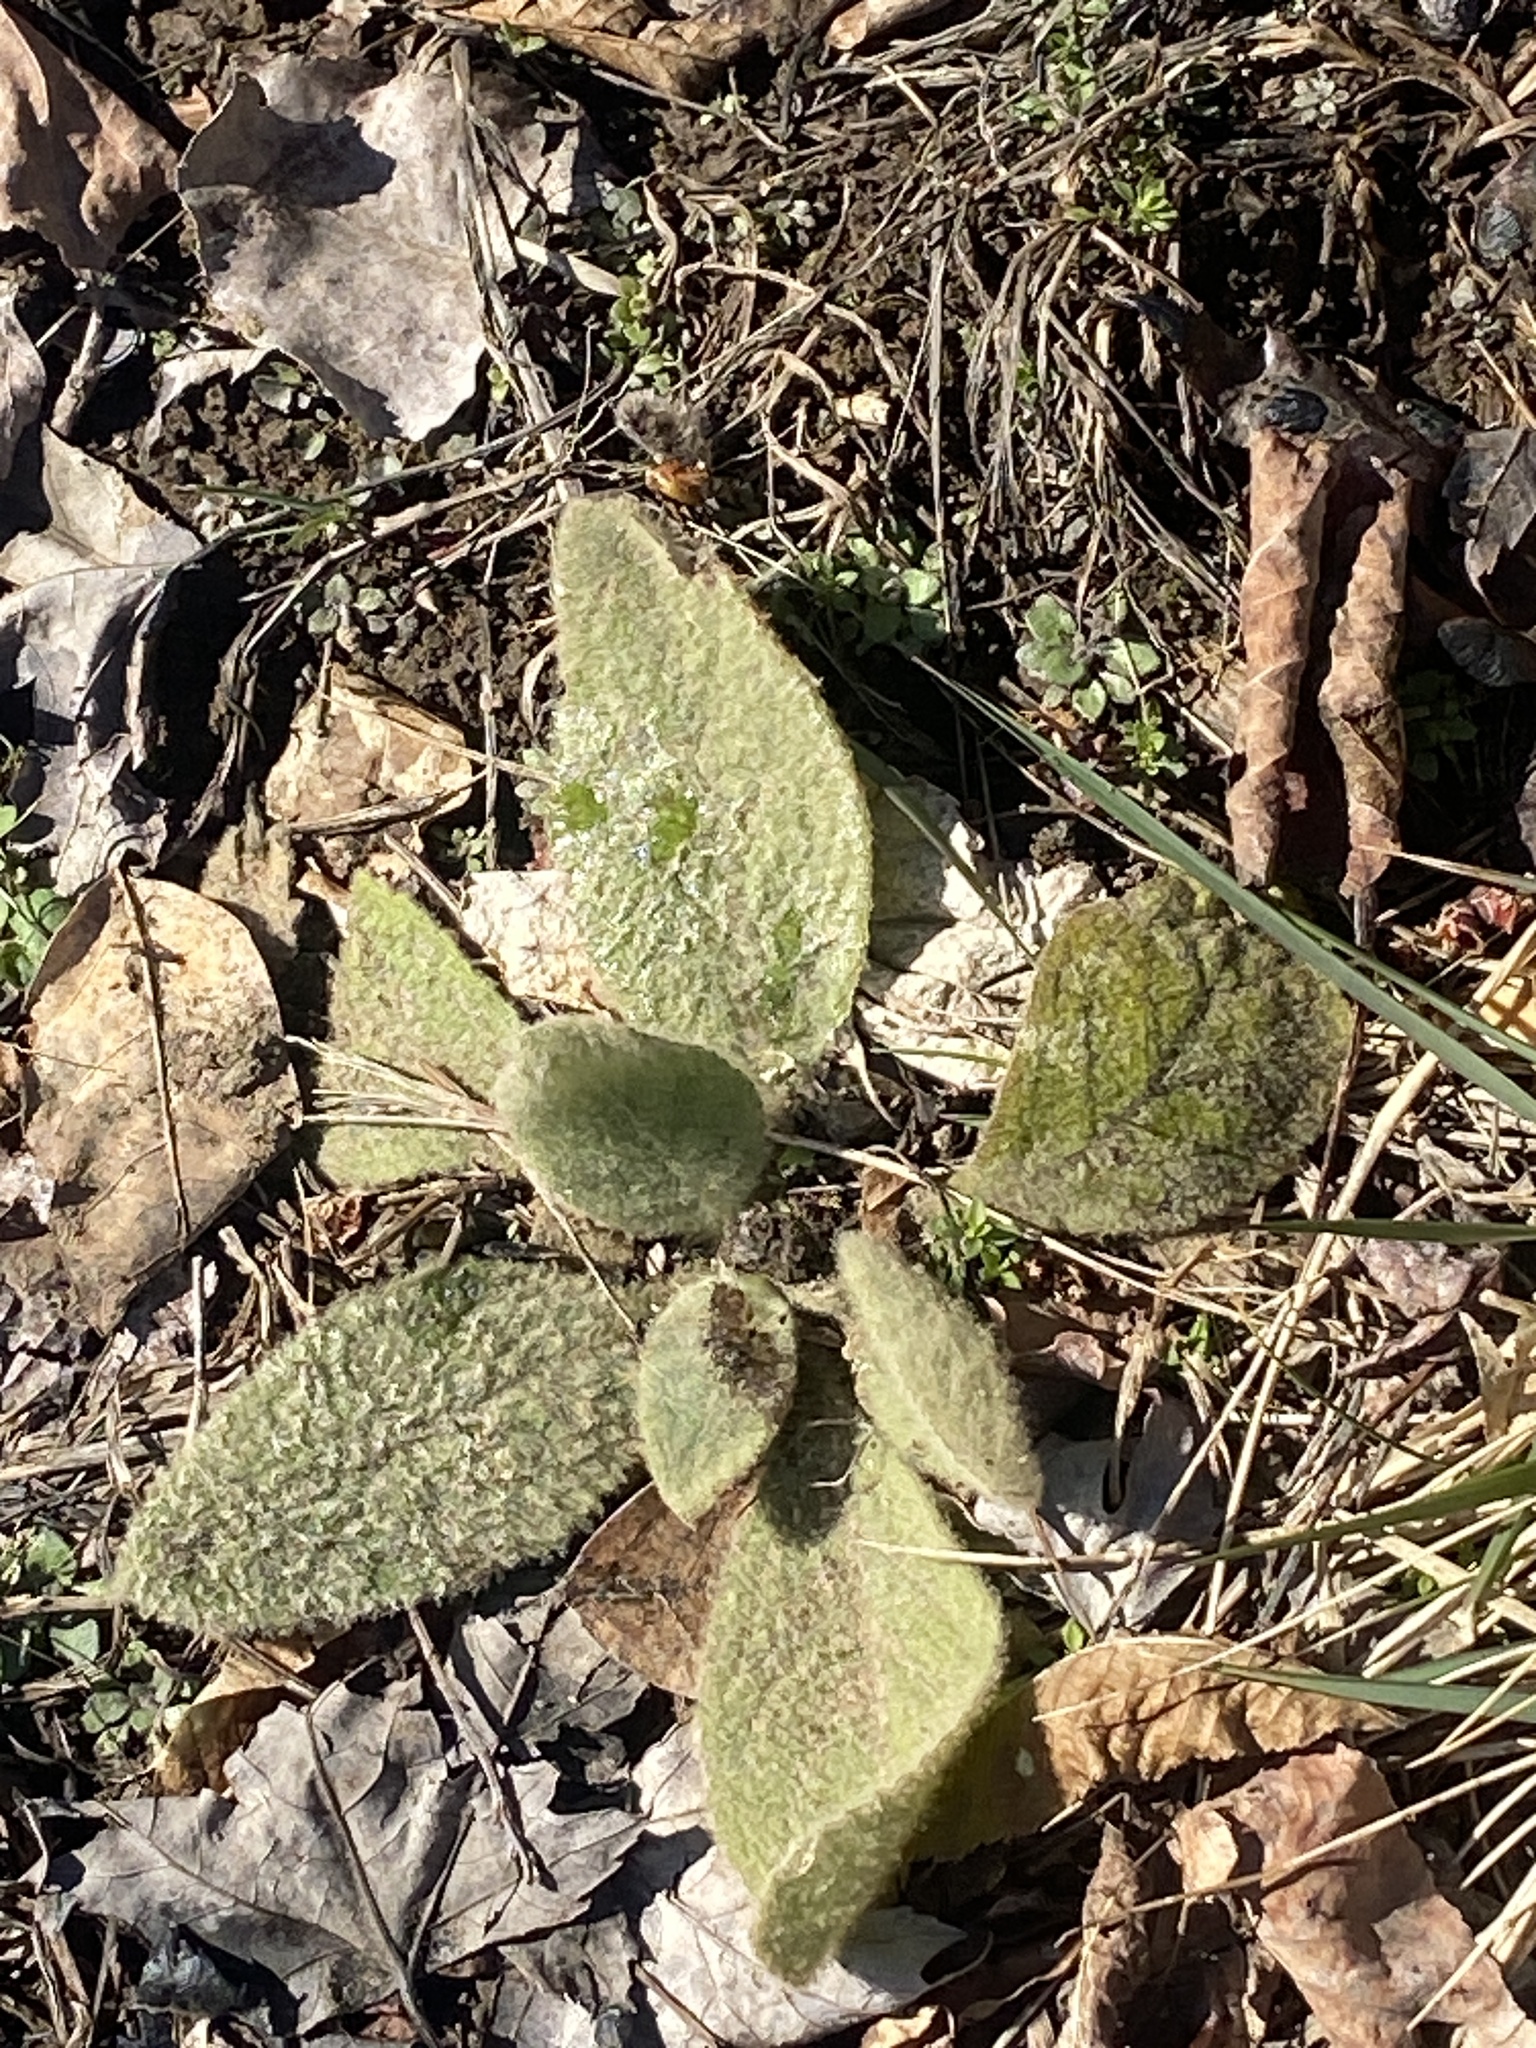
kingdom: Plantae
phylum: Tracheophyta
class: Magnoliopsida
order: Lamiales
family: Scrophulariaceae
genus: Verbascum
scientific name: Verbascum thapsus
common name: Common mullein
